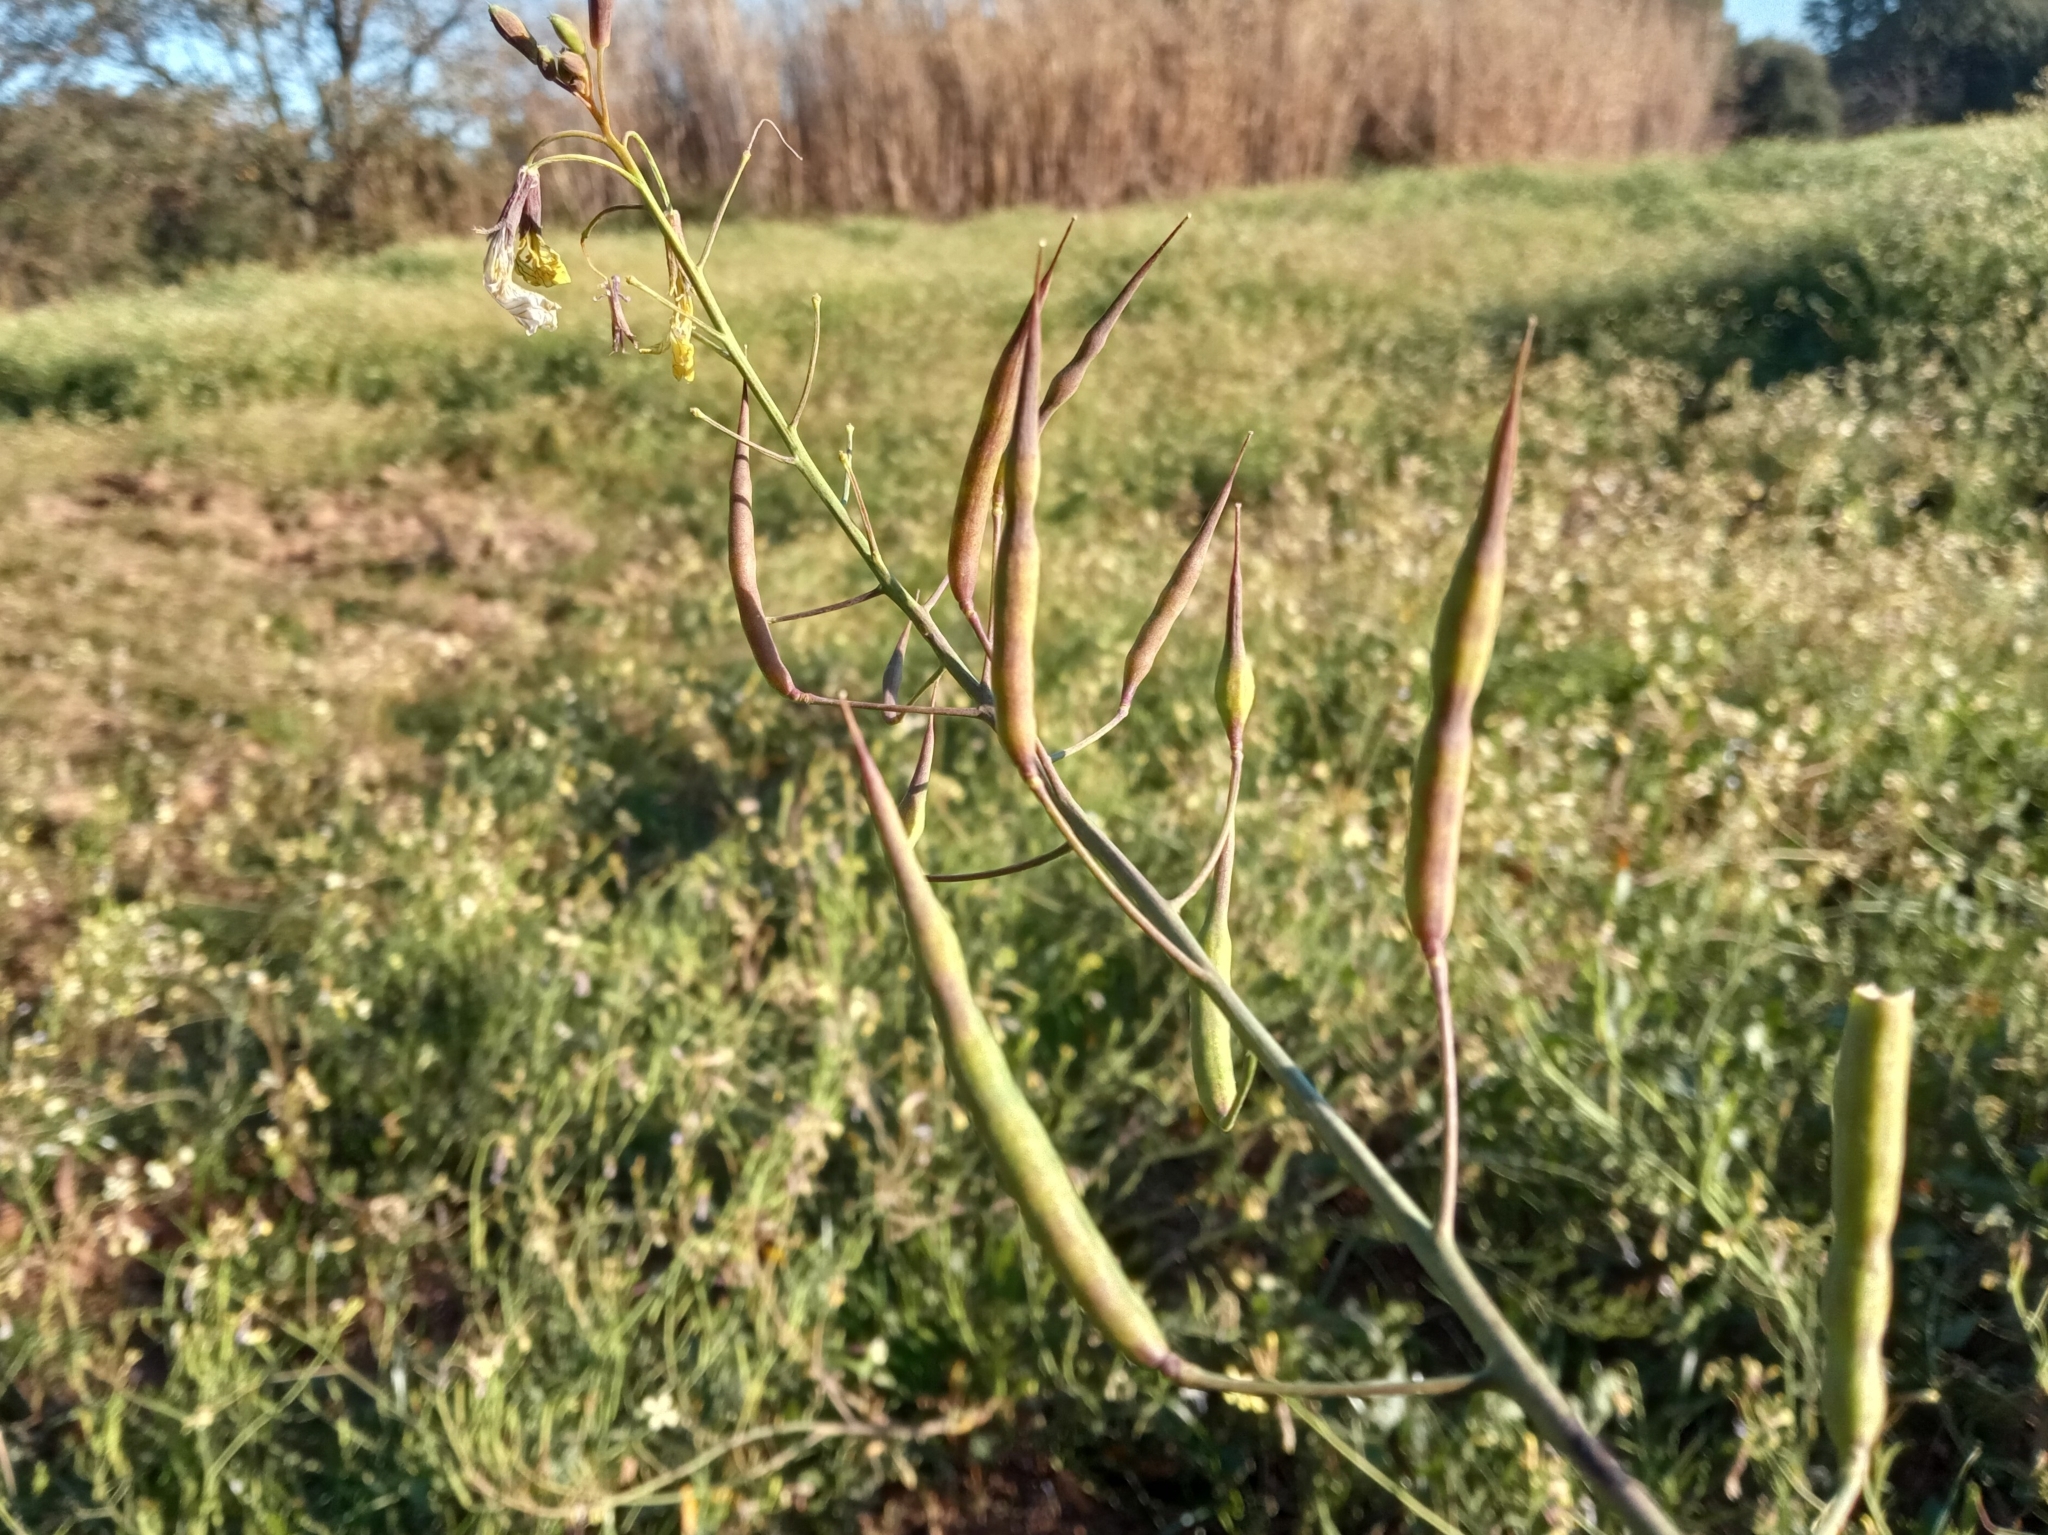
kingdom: Plantae
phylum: Tracheophyta
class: Magnoliopsida
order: Brassicales
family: Brassicaceae
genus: Raphanus
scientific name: Raphanus raphanistrum
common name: Wild radish
